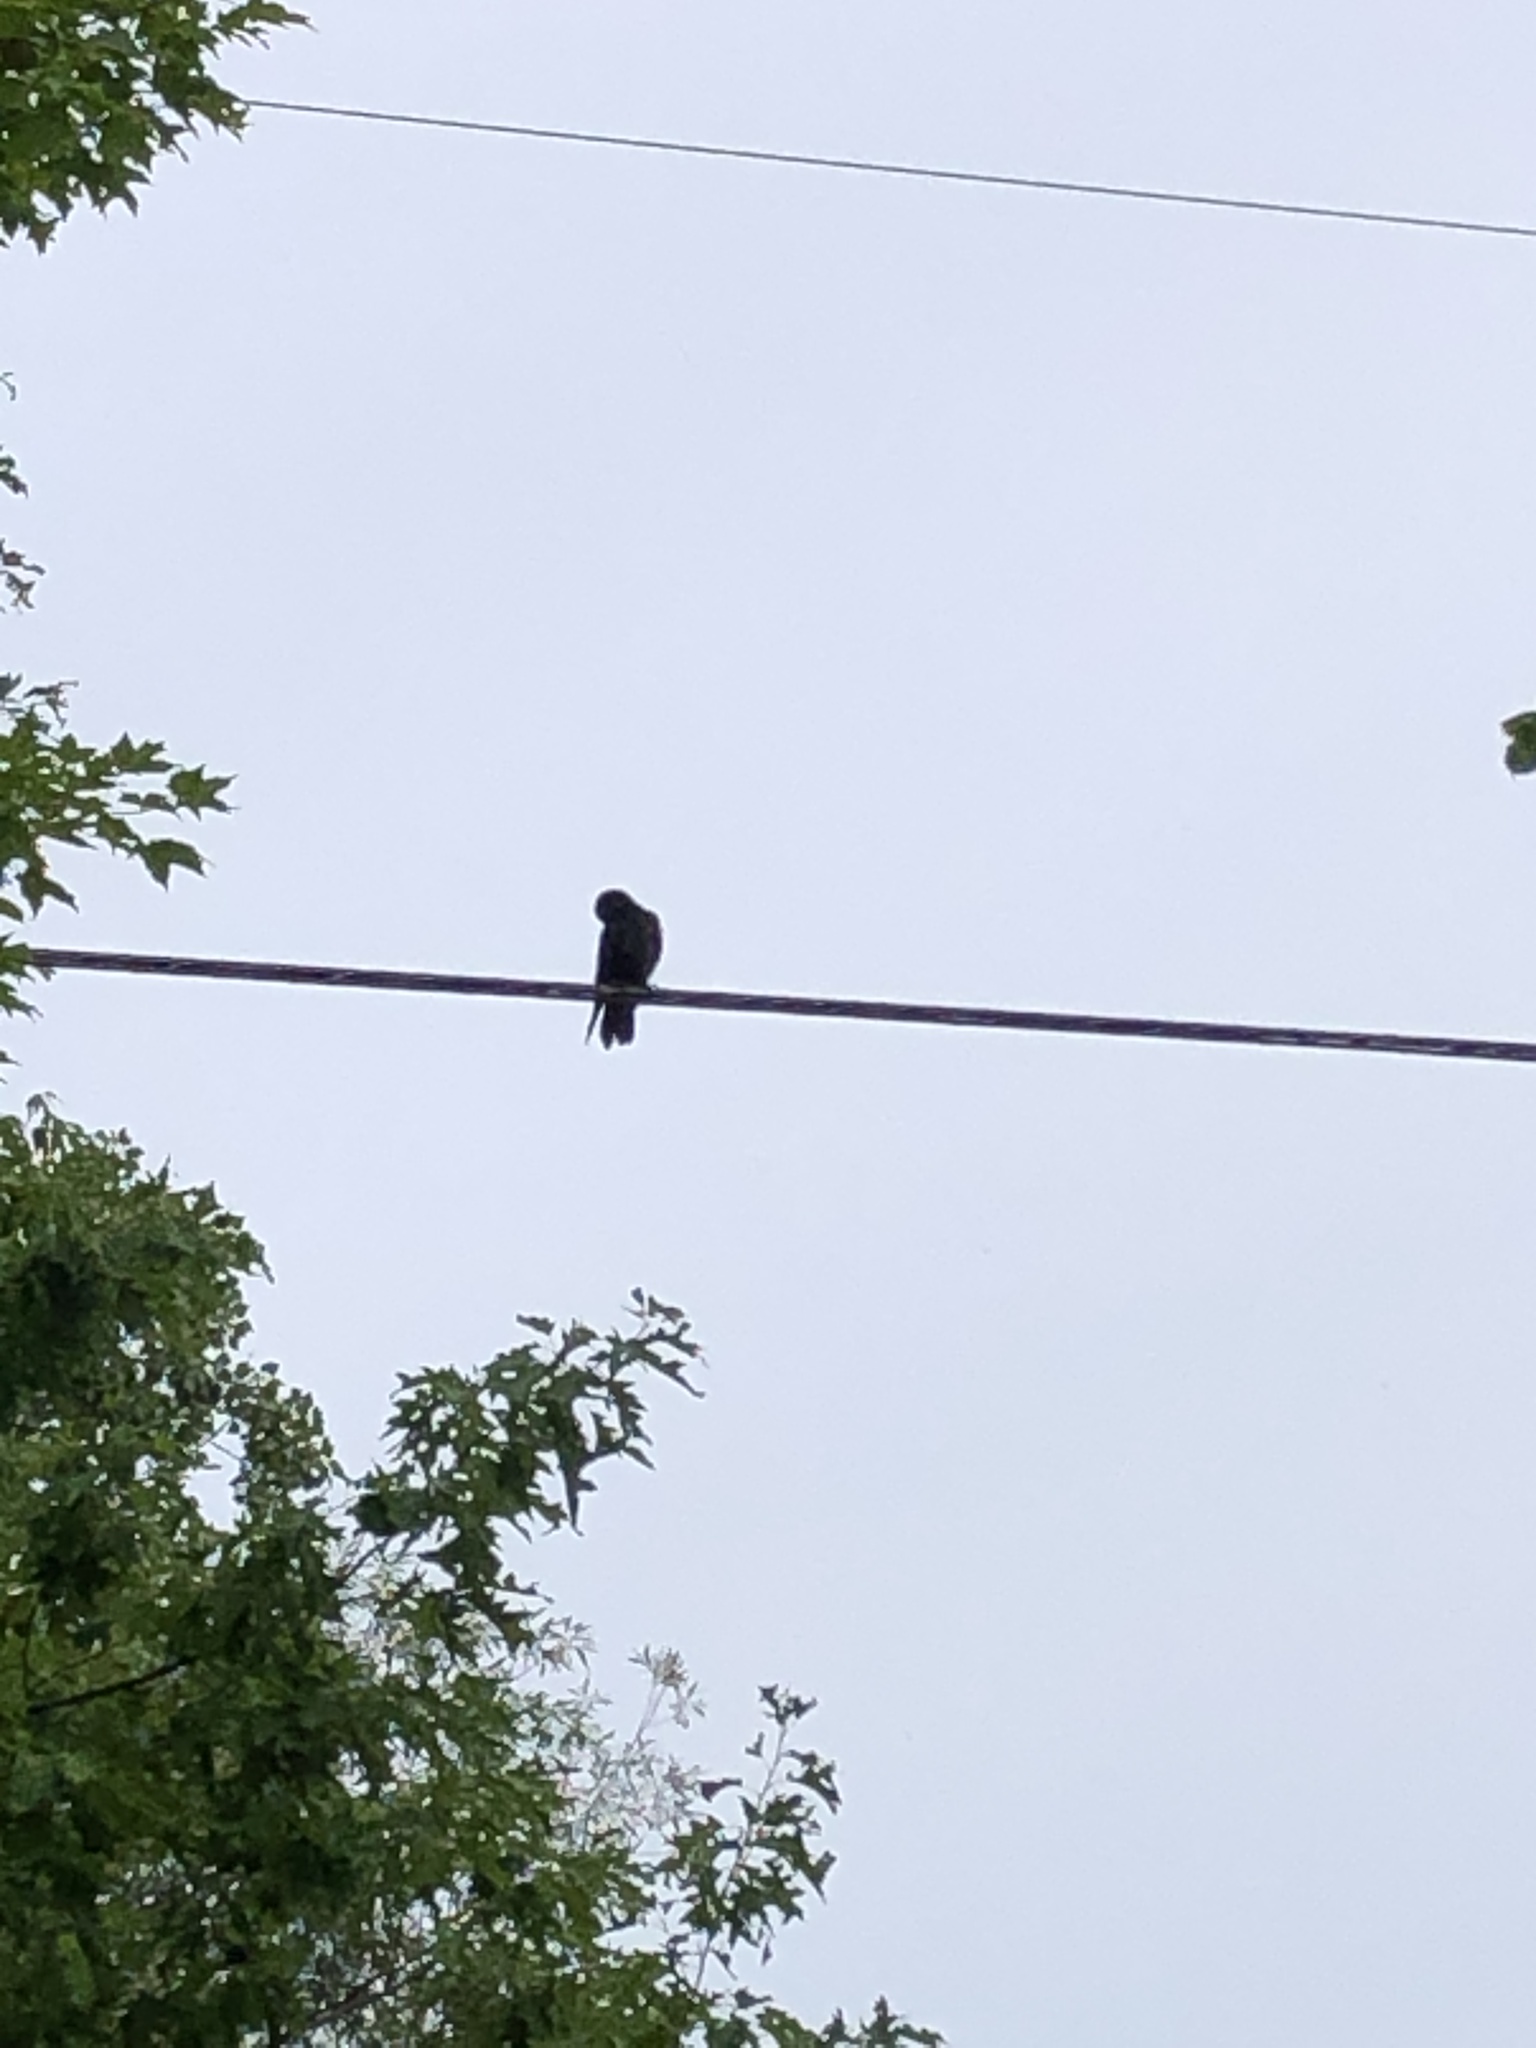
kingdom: Animalia
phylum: Chordata
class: Aves
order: Passeriformes
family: Corvidae
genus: Corvus
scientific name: Corvus brachyrhynchos
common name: American crow
